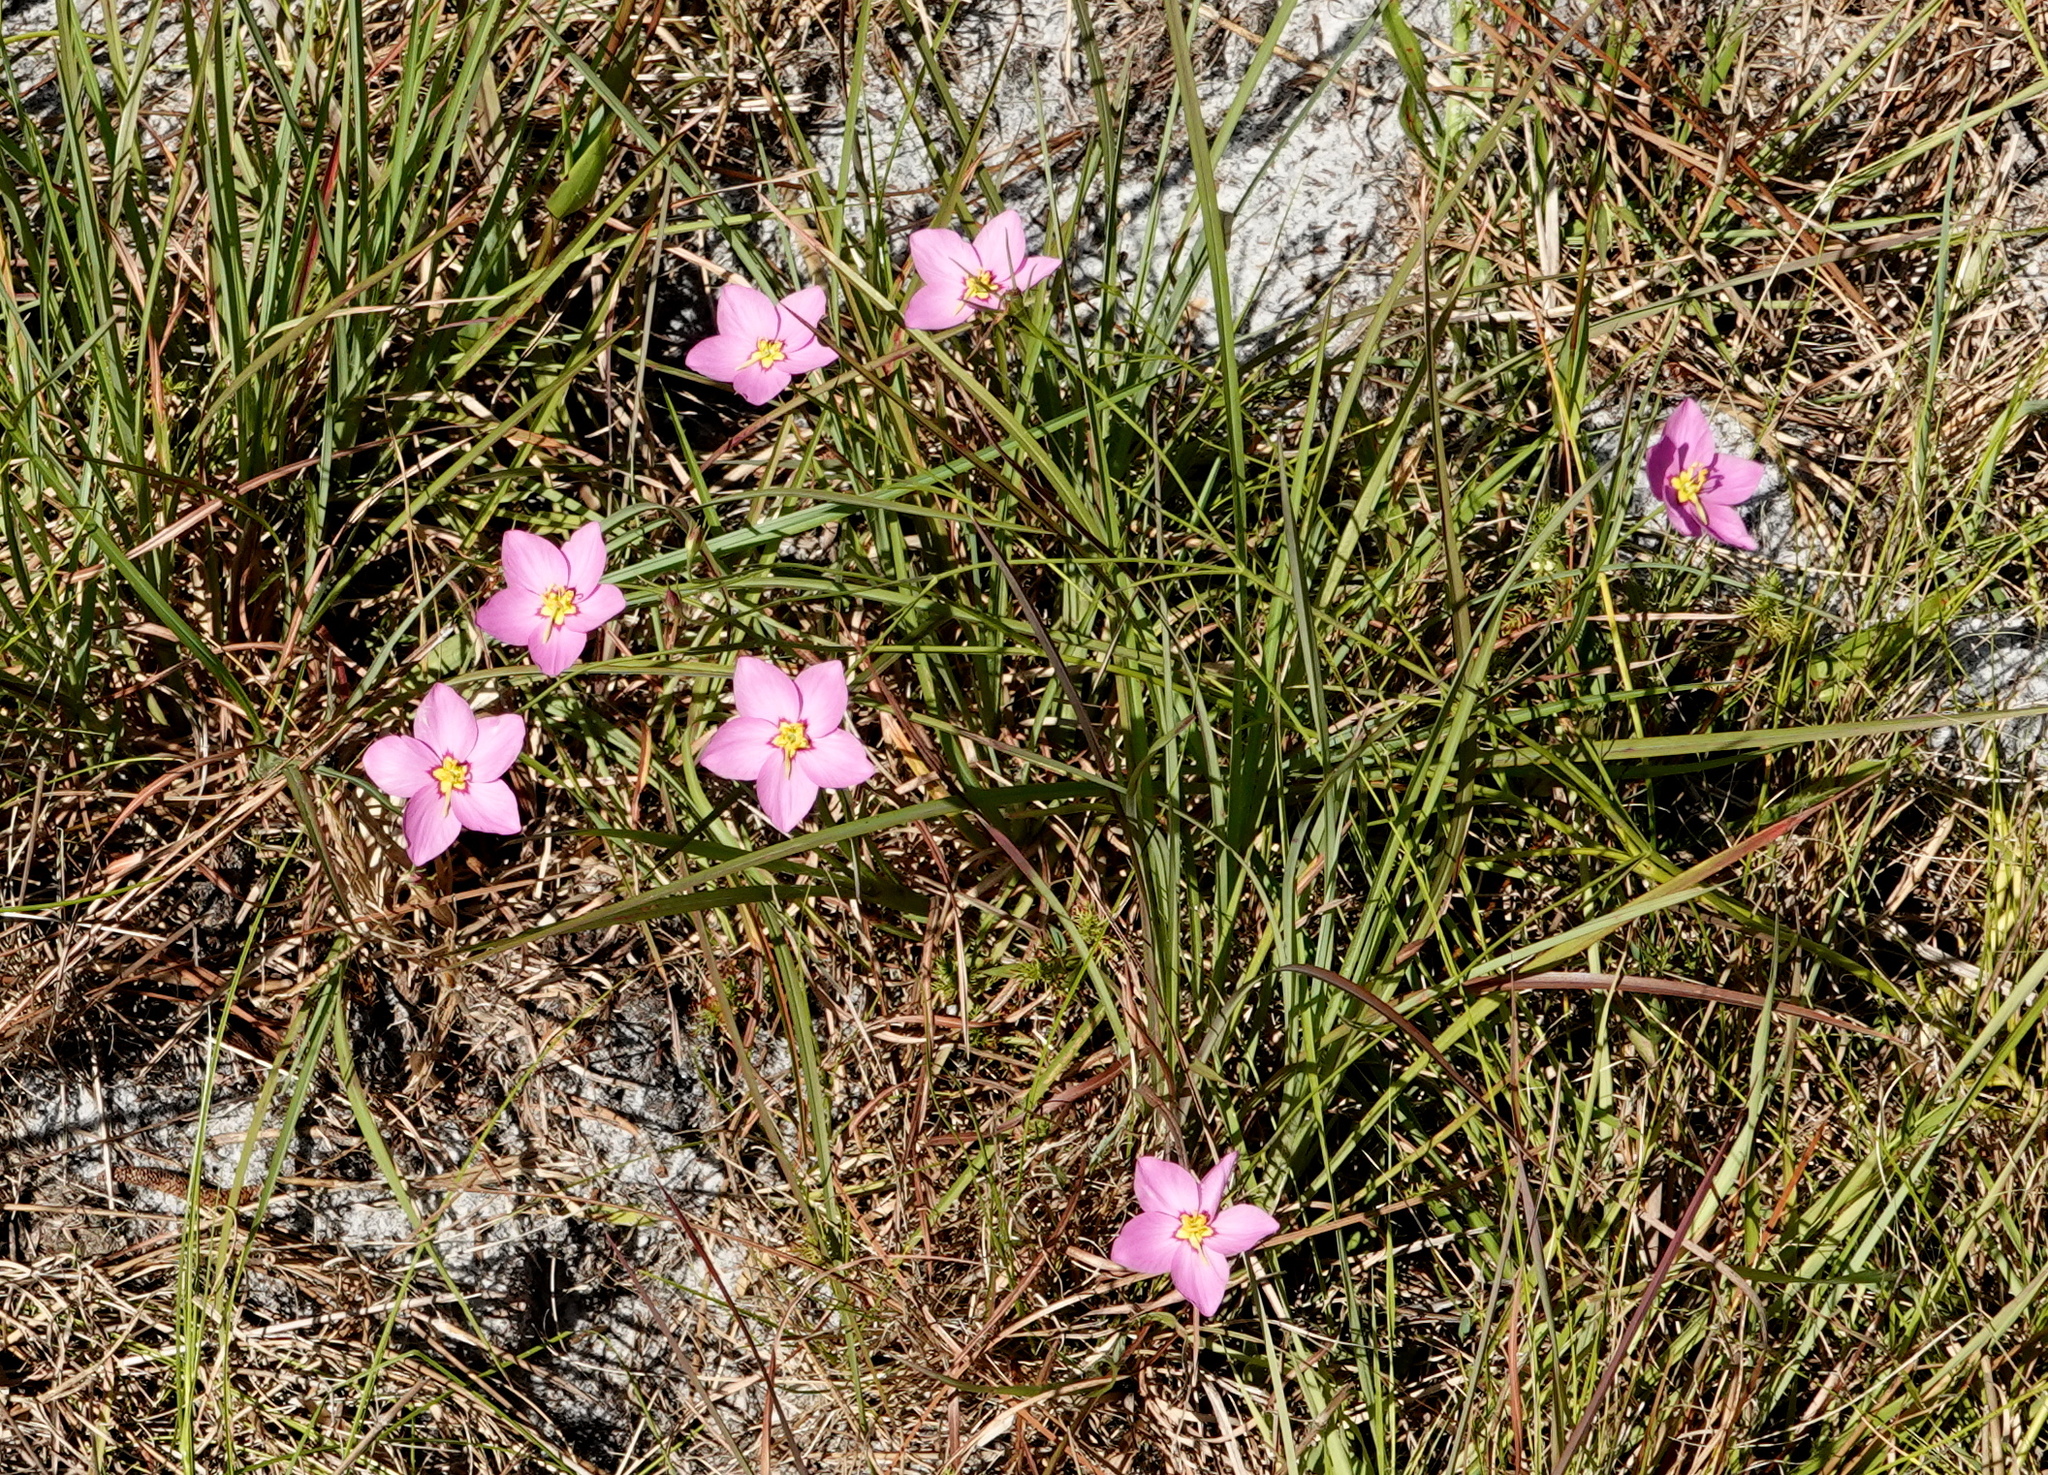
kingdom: Plantae
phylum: Tracheophyta
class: Magnoliopsida
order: Gentianales
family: Gentianaceae
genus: Sabatia
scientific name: Sabatia grandiflora
